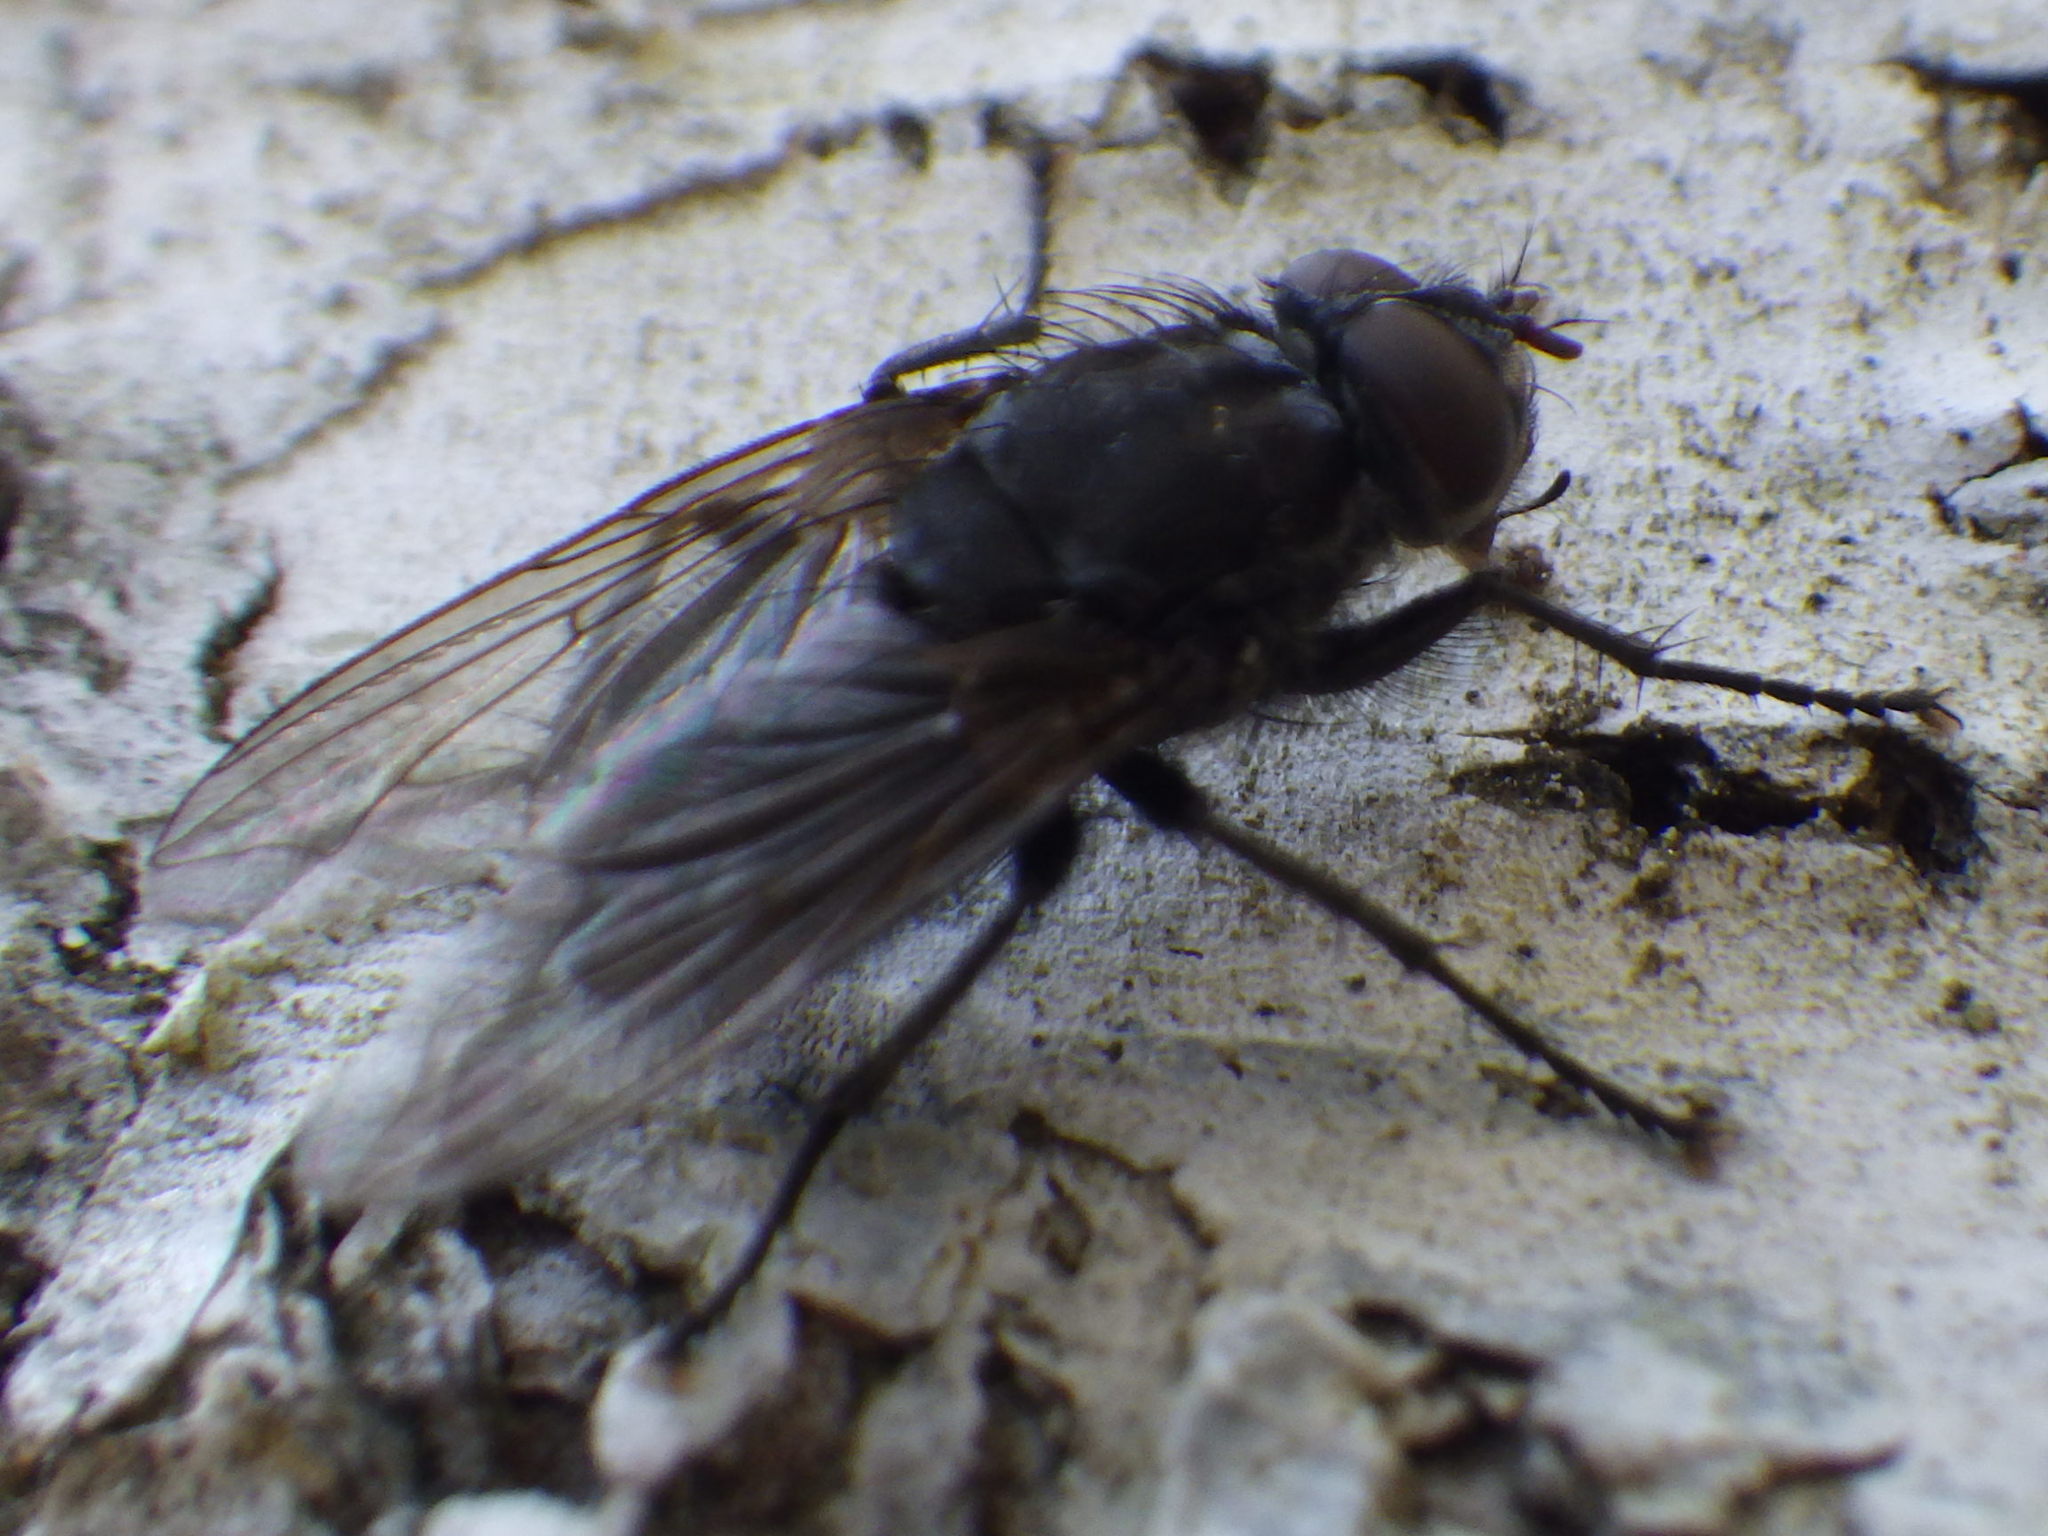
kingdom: Animalia
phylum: Arthropoda
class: Insecta
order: Diptera
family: Polleniidae
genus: Pollenia
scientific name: Pollenia vagabunda
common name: Vagabund cluster fly
